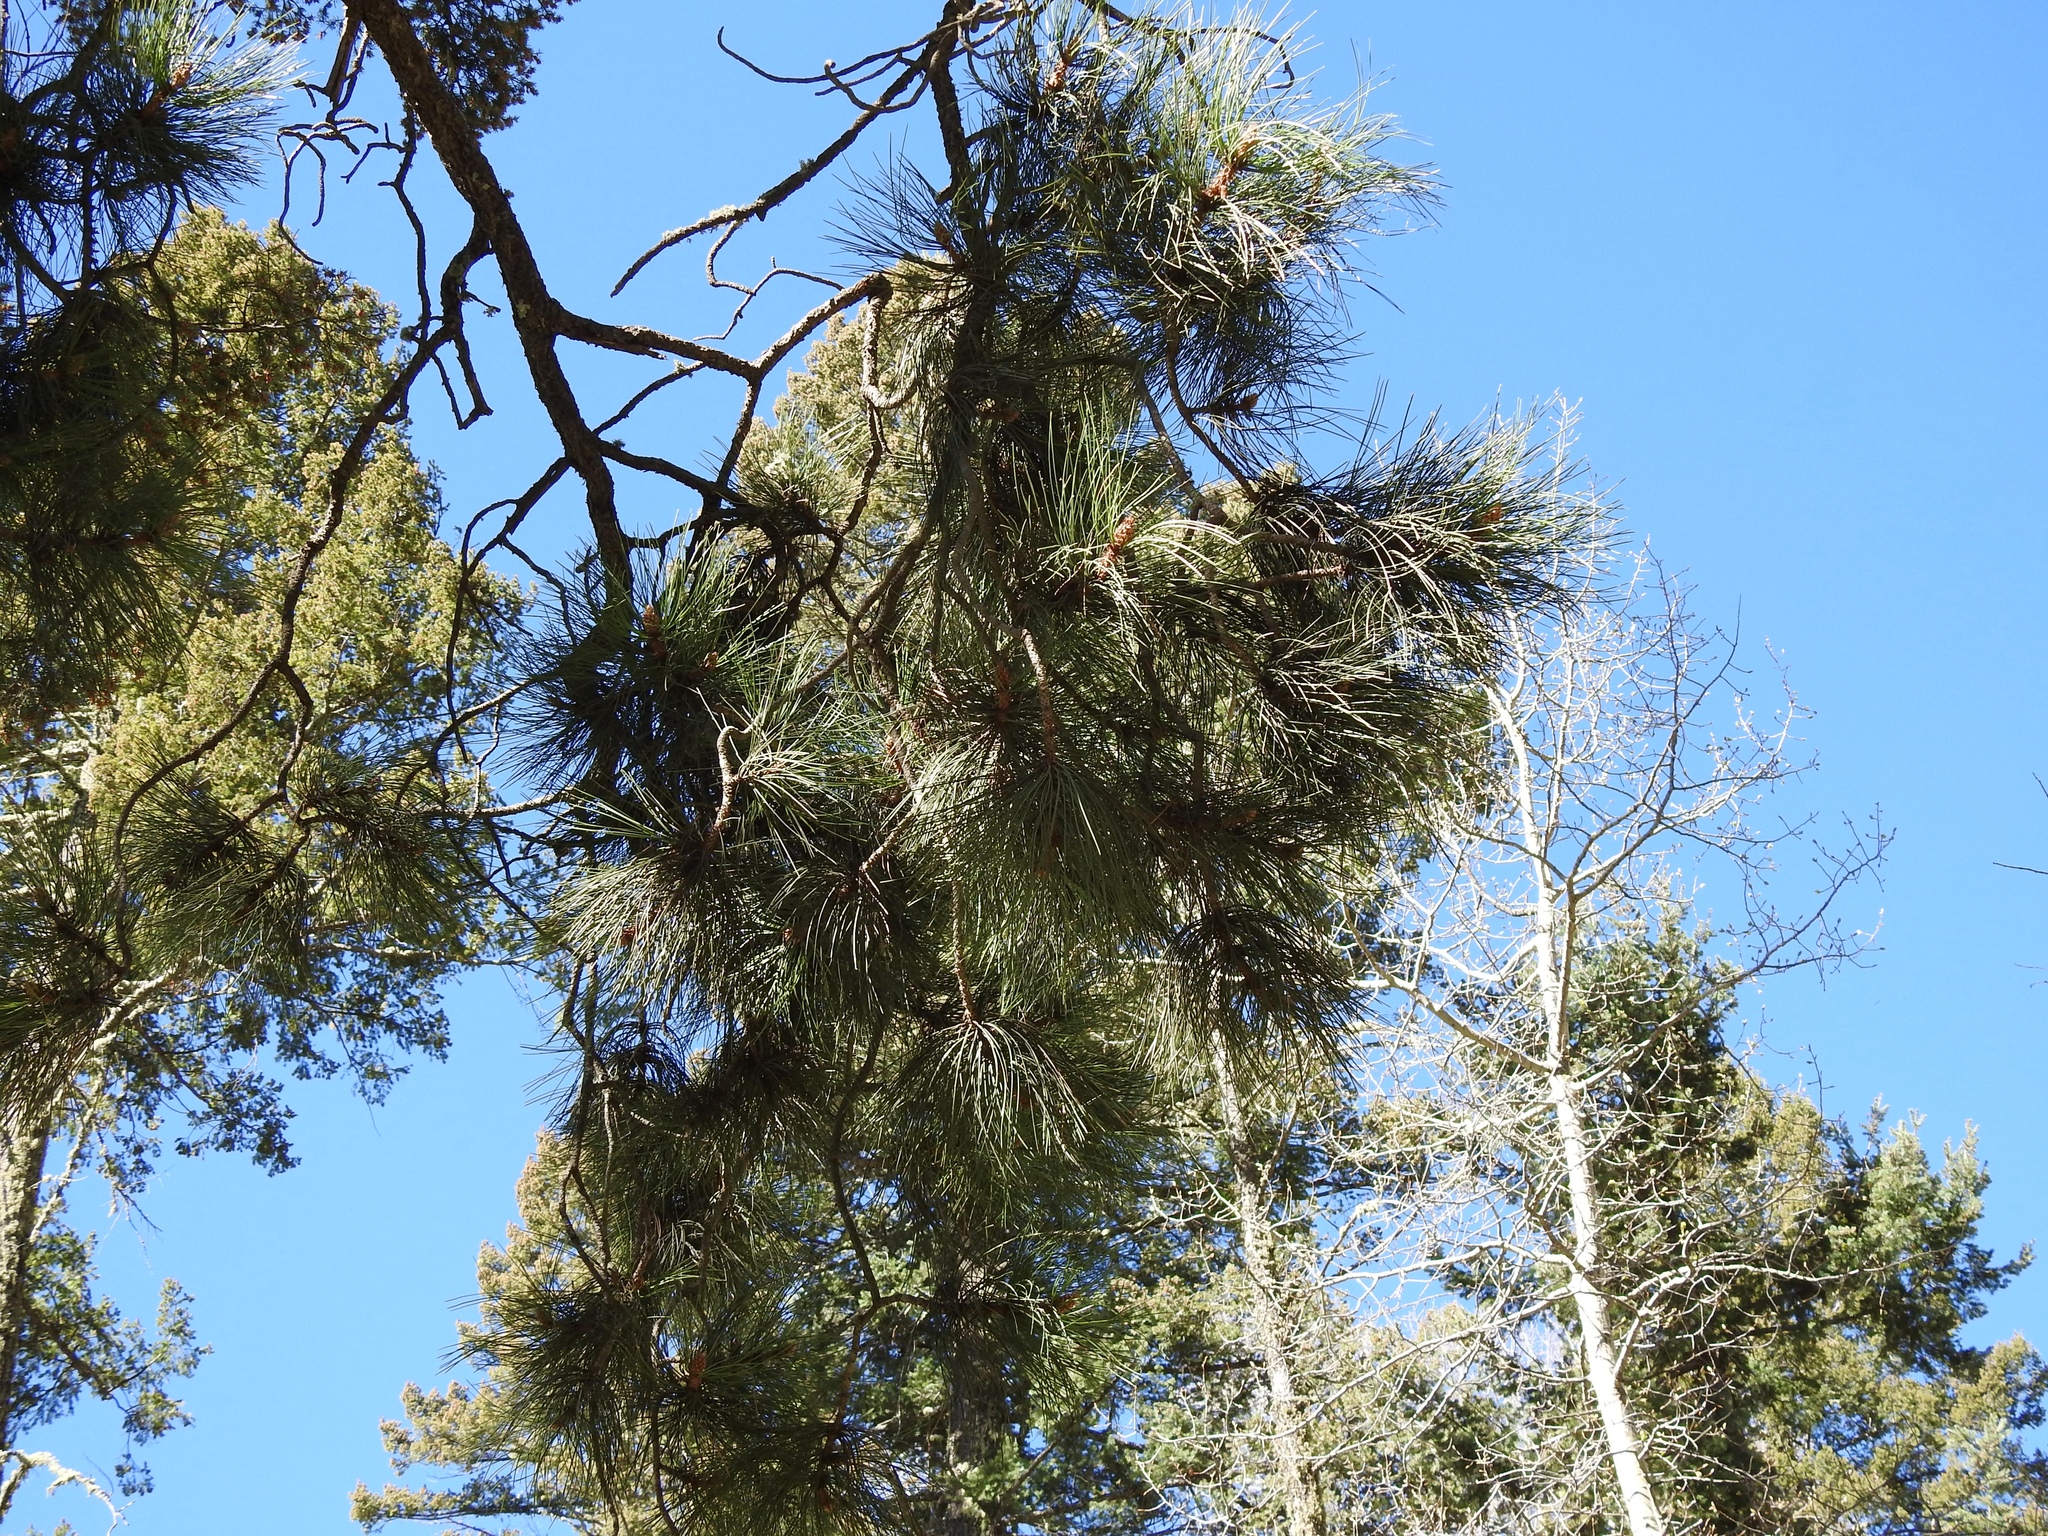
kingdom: Plantae
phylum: Tracheophyta
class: Pinopsida
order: Pinales
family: Pinaceae
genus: Pinus
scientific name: Pinus ponderosa
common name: Western yellow-pine
